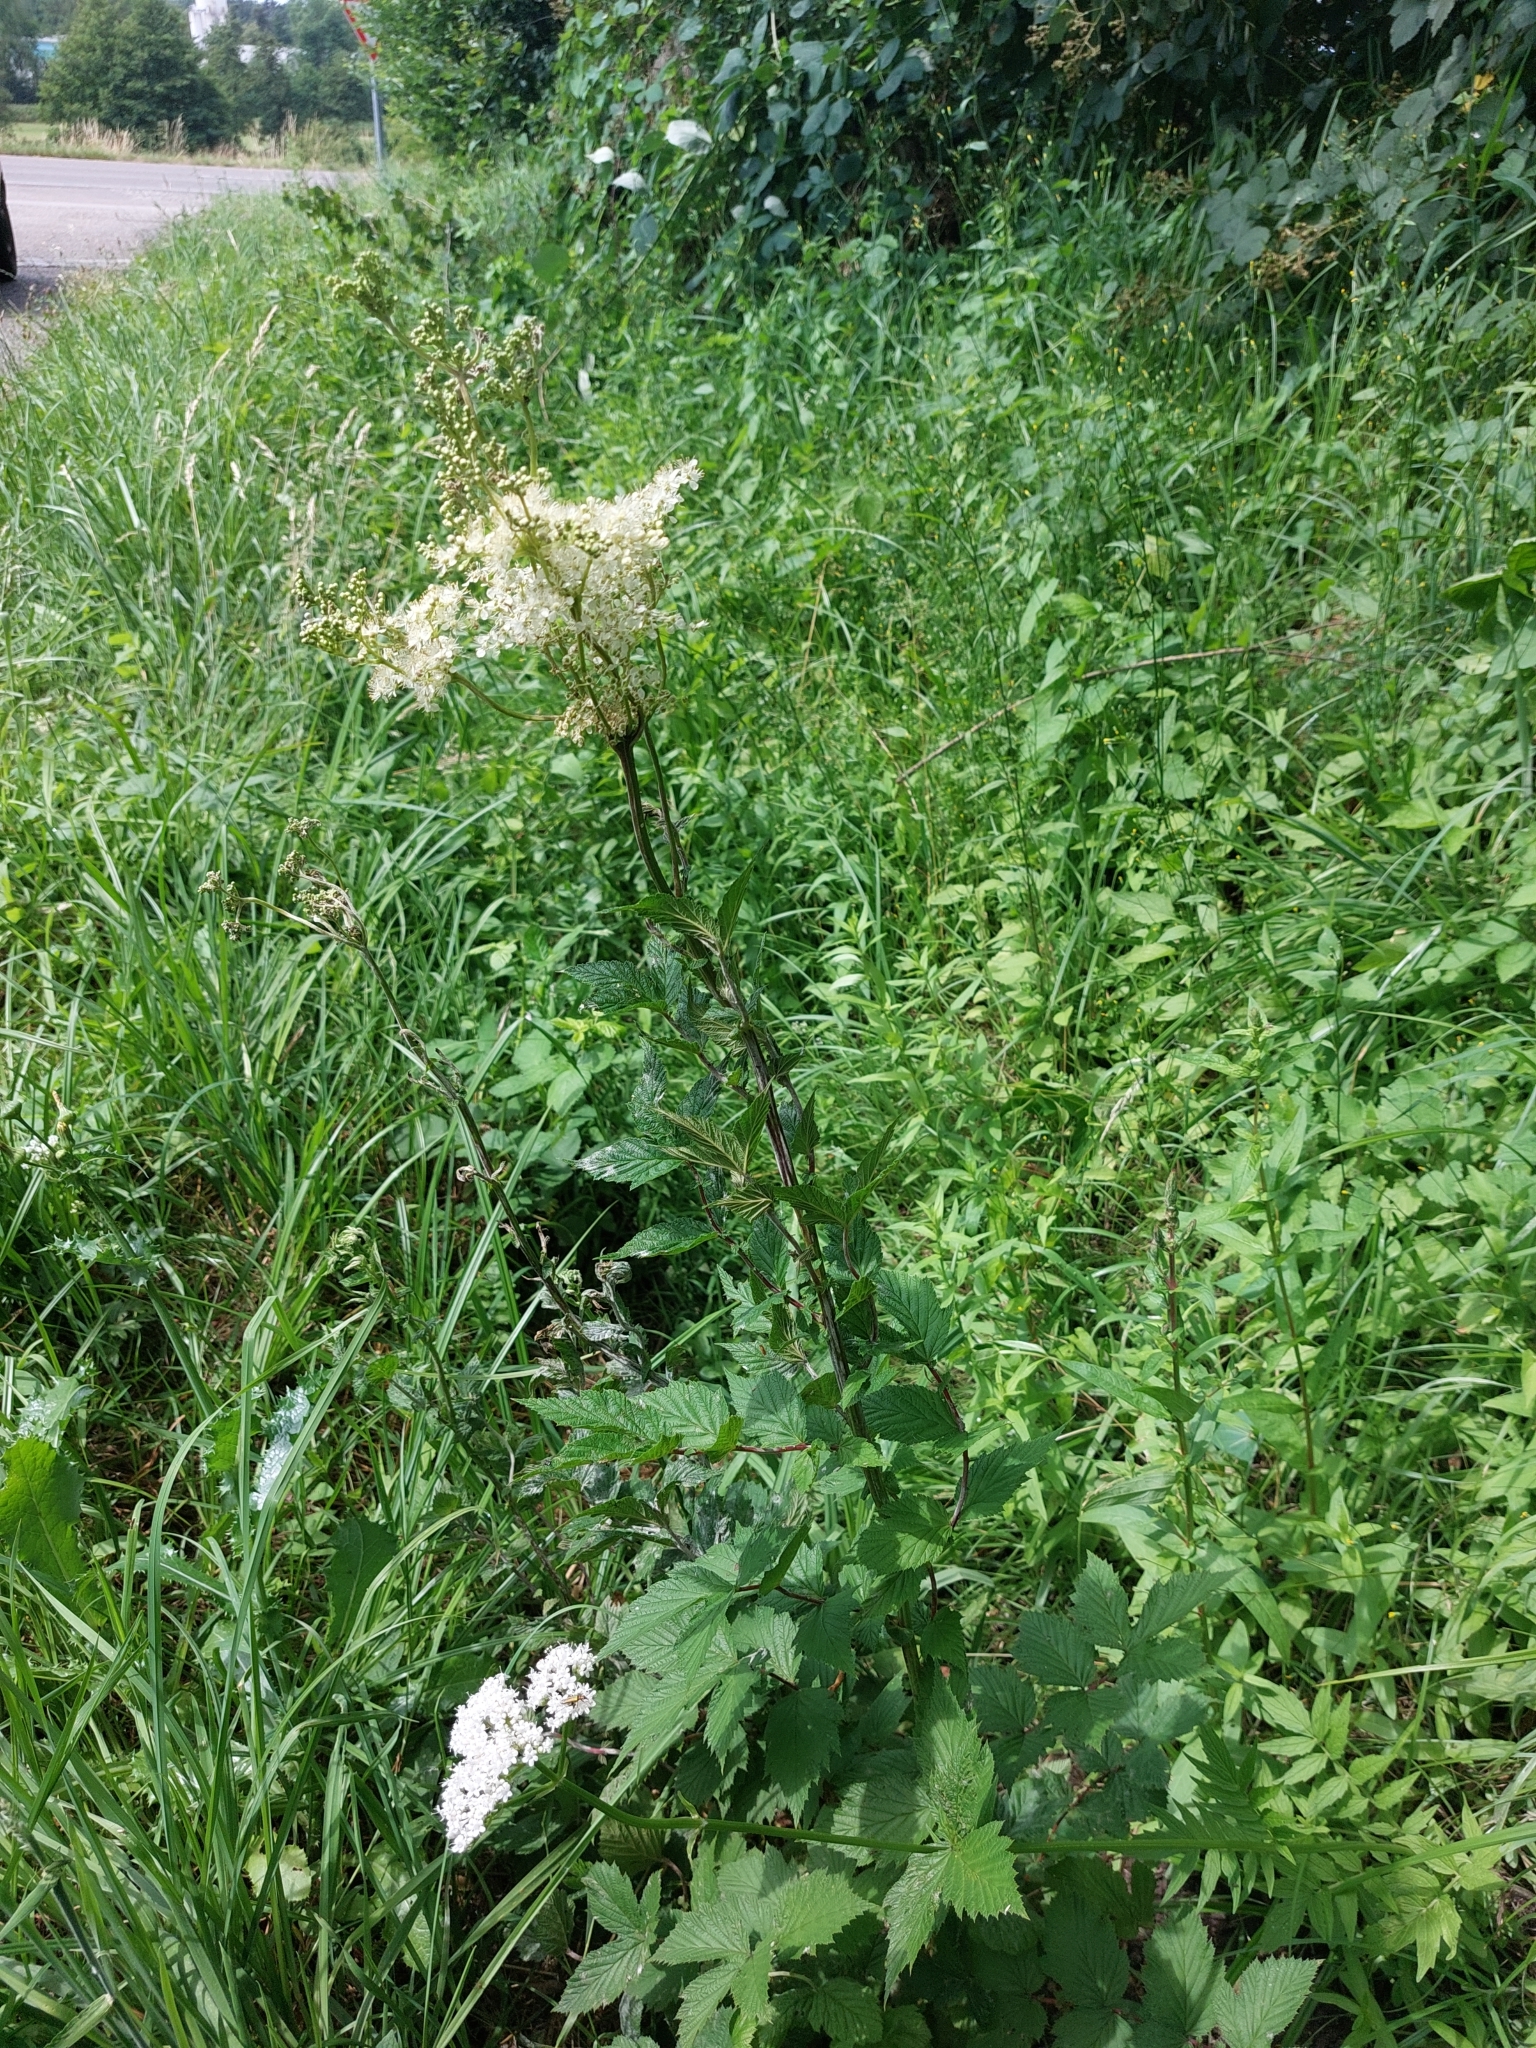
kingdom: Plantae
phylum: Tracheophyta
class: Magnoliopsida
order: Rosales
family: Rosaceae
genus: Filipendula
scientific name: Filipendula ulmaria
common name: Meadowsweet
